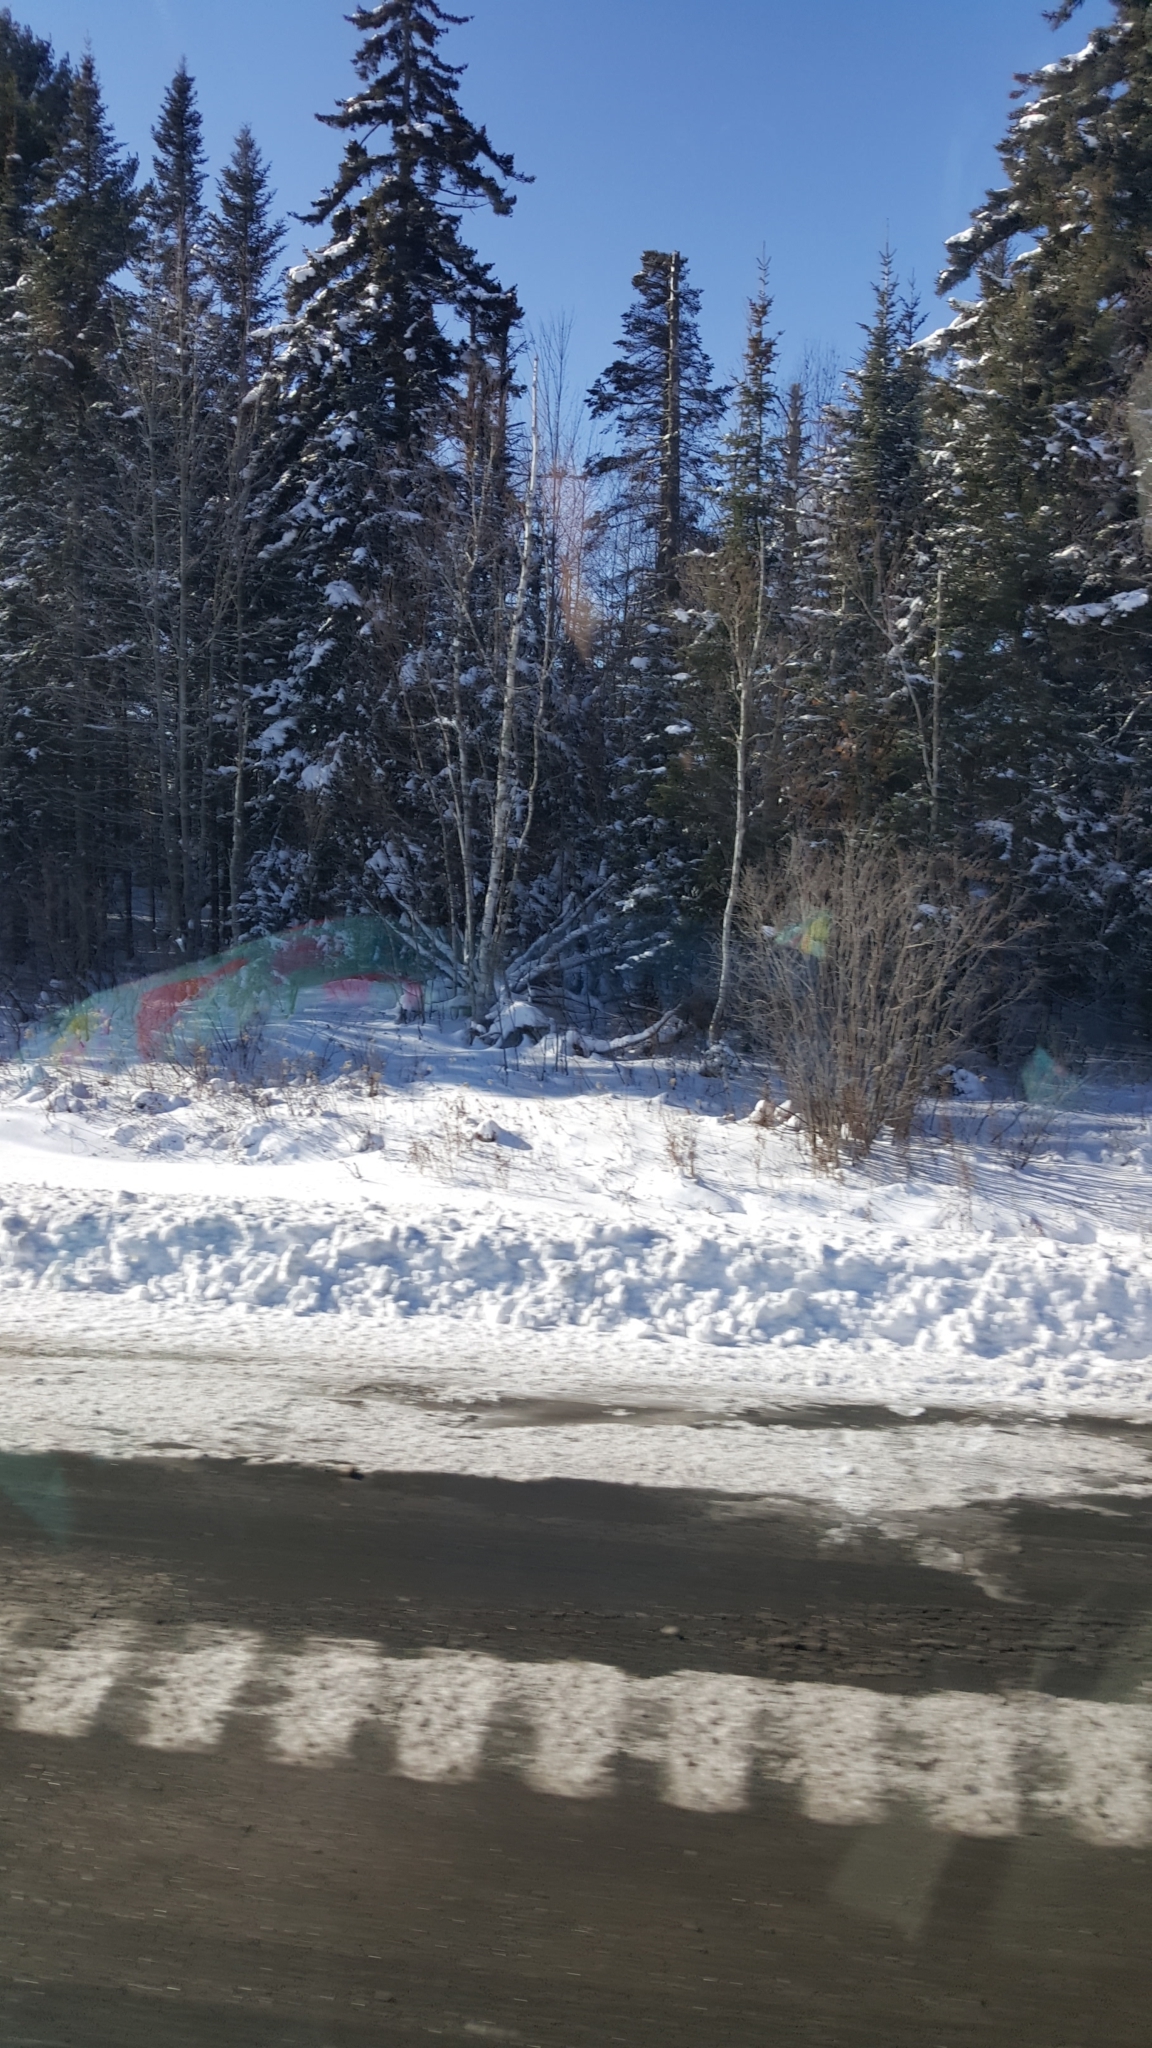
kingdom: Plantae
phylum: Tracheophyta
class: Pinopsida
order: Pinales
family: Pinaceae
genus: Abies
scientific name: Abies balsamea
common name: Balsam fir
